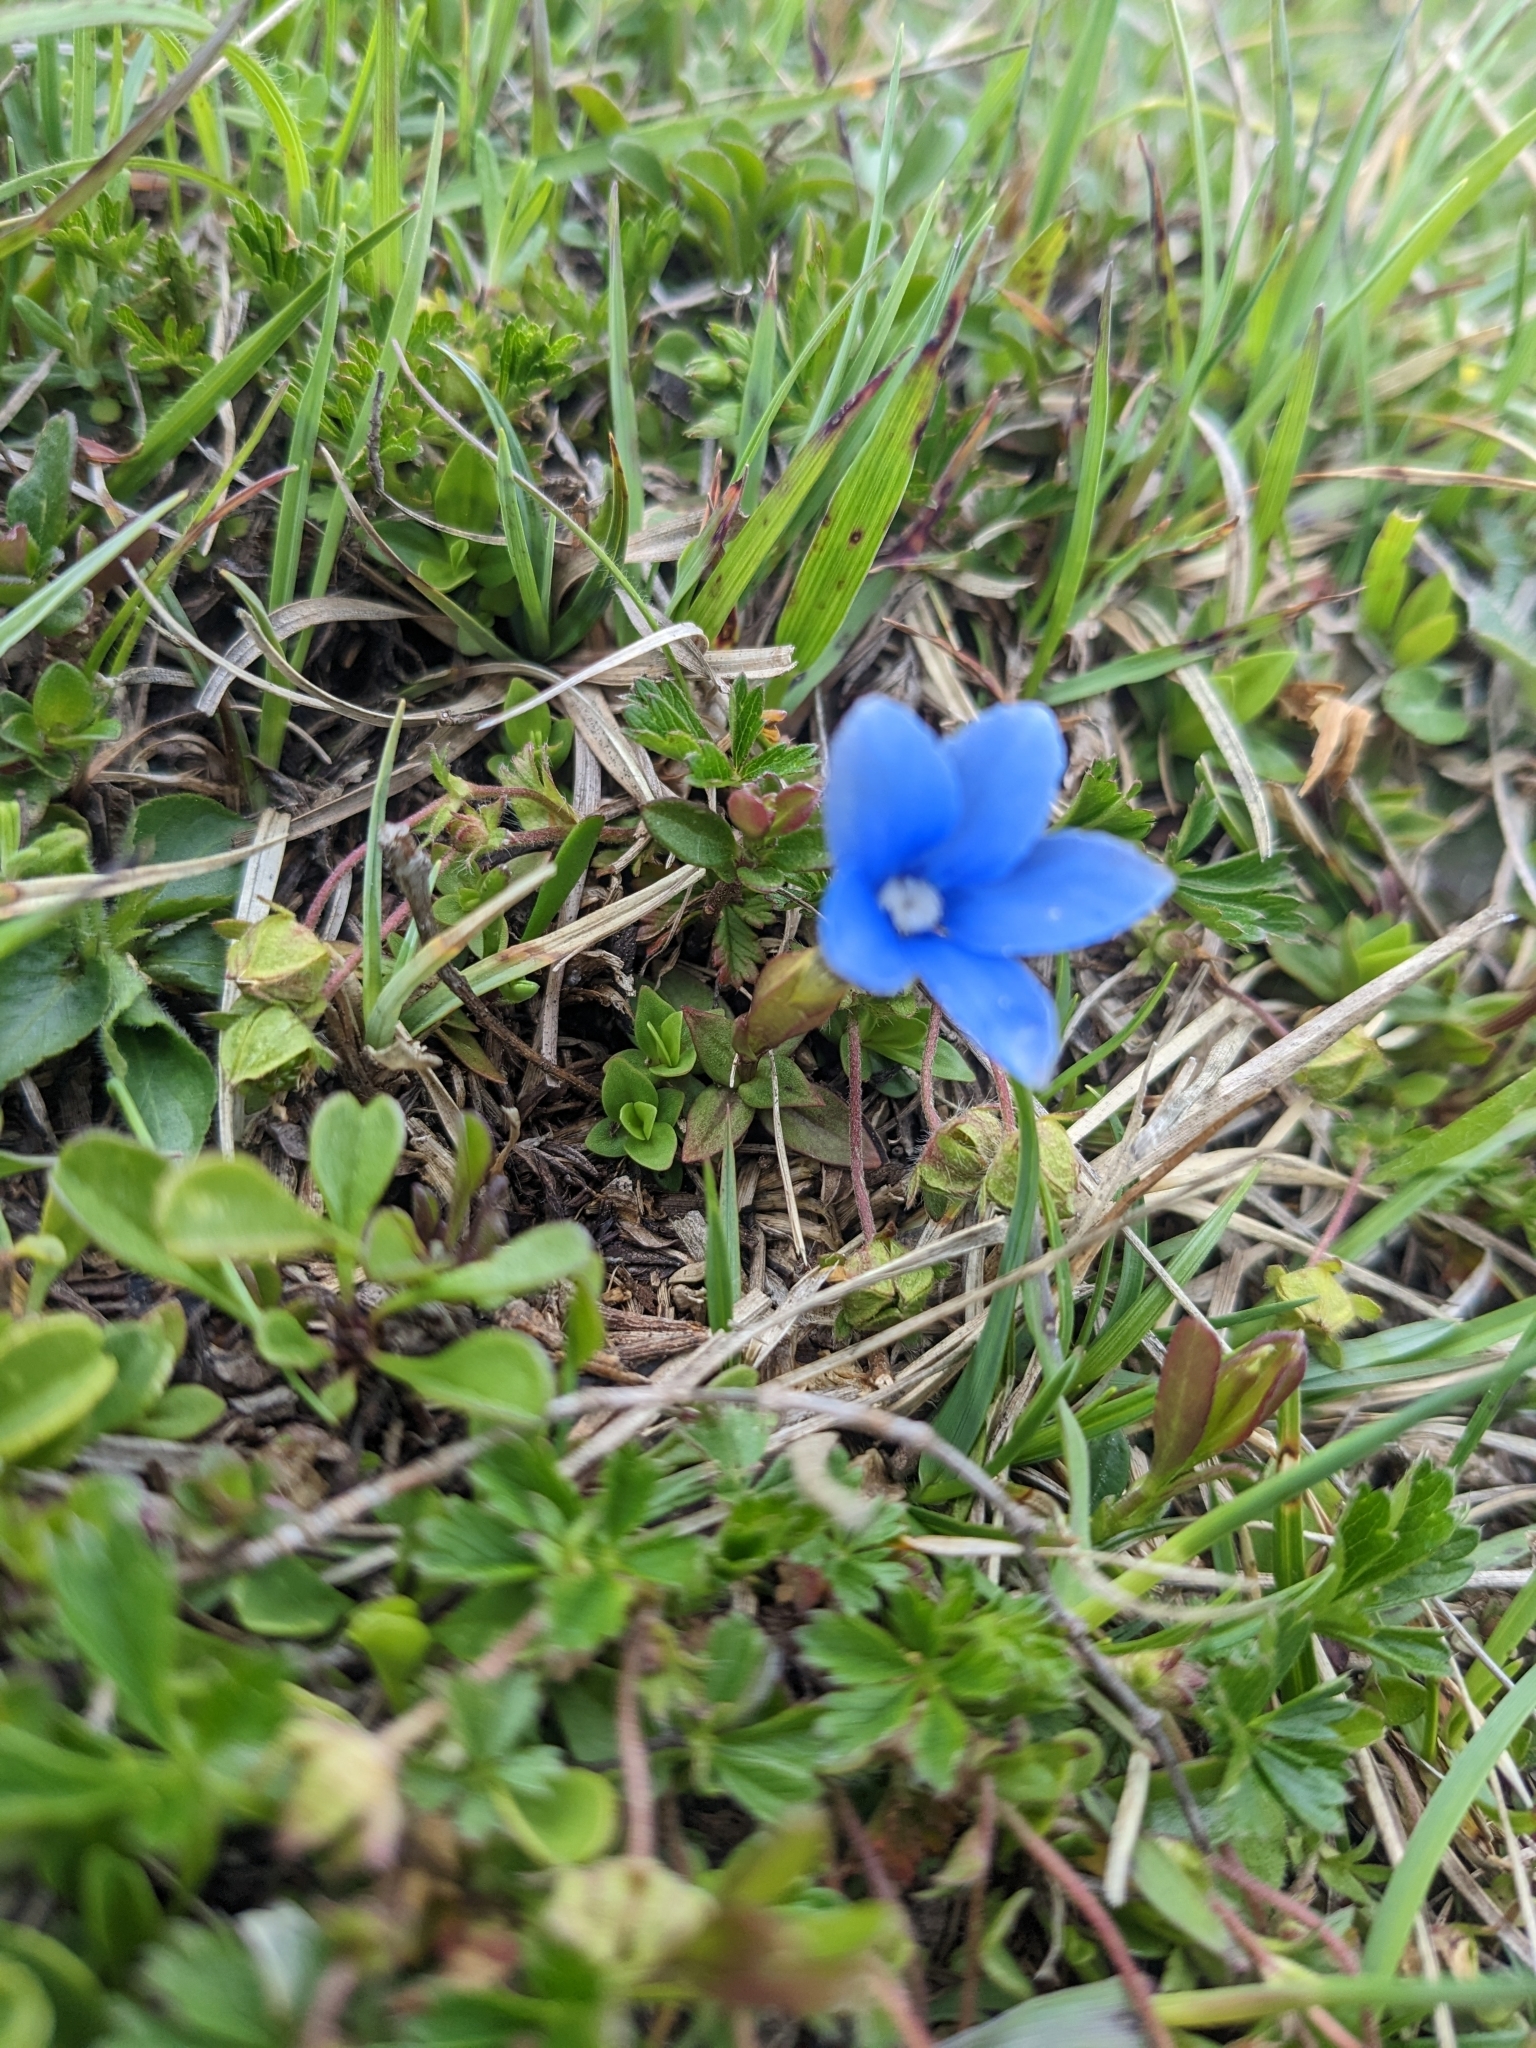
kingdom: Plantae
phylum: Tracheophyta
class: Magnoliopsida
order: Gentianales
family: Gentianaceae
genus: Gentiana
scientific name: Gentiana verna
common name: Spring gentian
